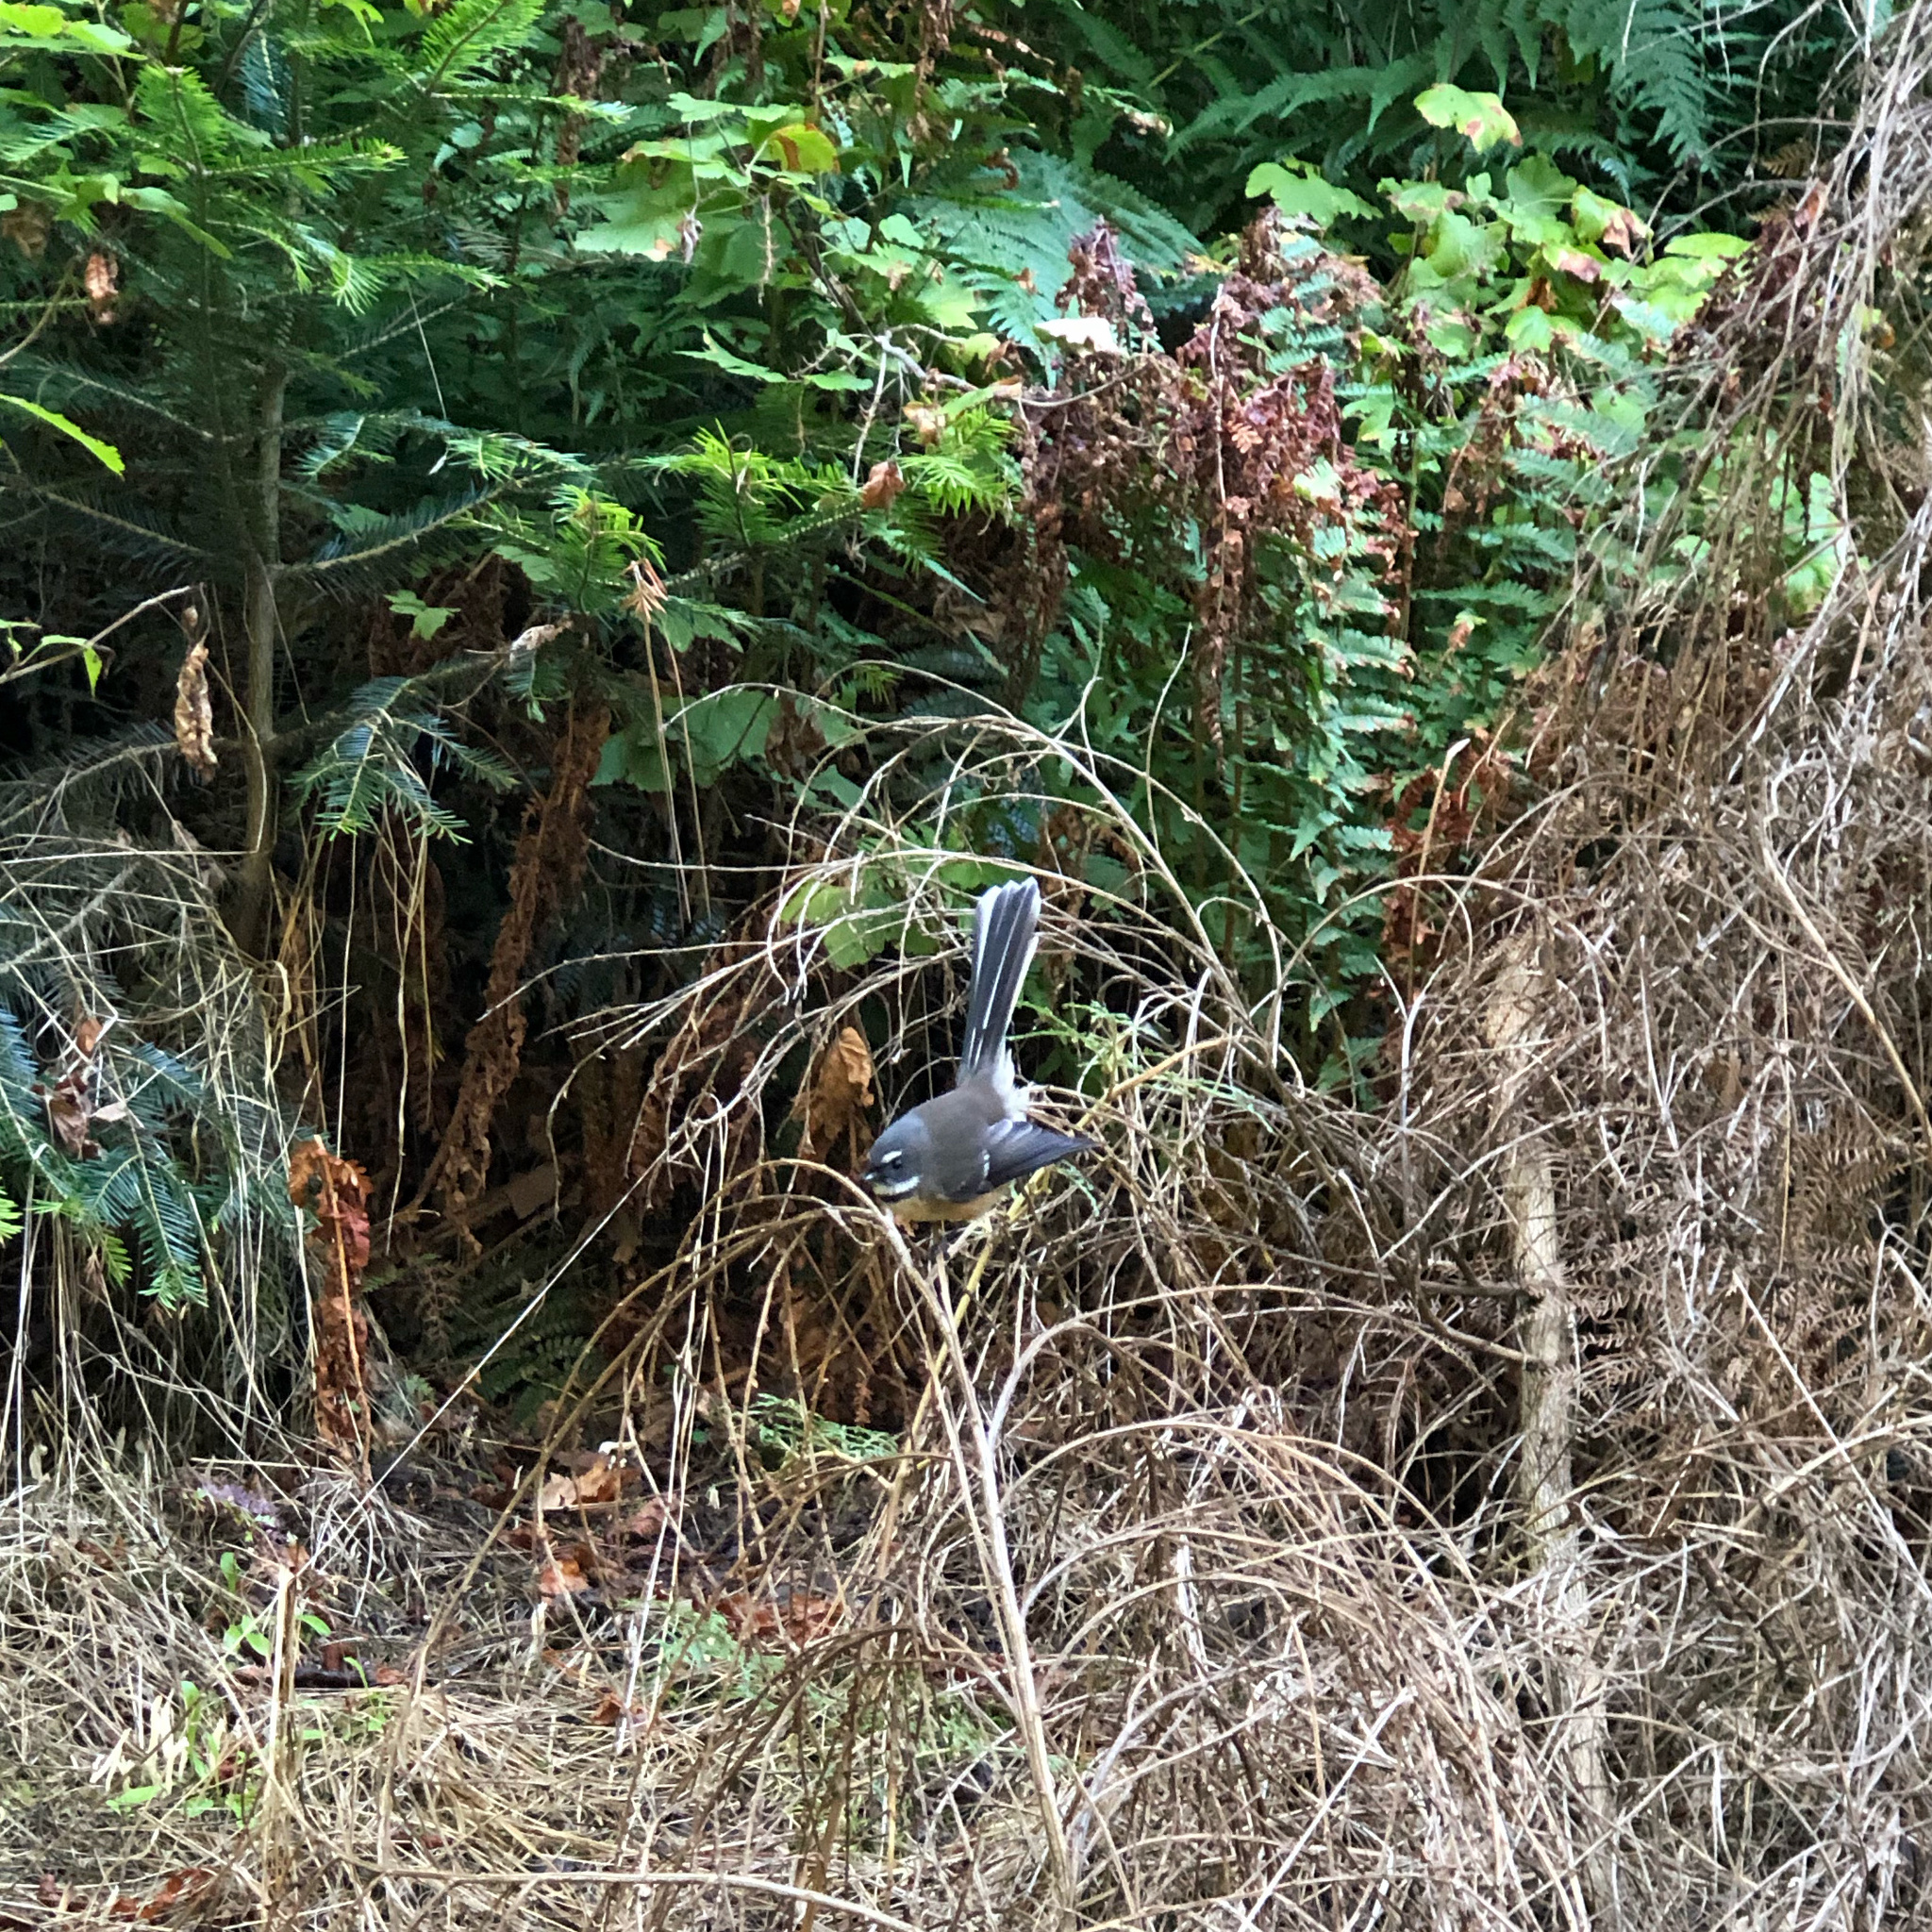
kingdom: Animalia
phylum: Chordata
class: Aves
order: Passeriformes
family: Rhipiduridae
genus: Rhipidura
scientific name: Rhipidura fuliginosa
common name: New zealand fantail
